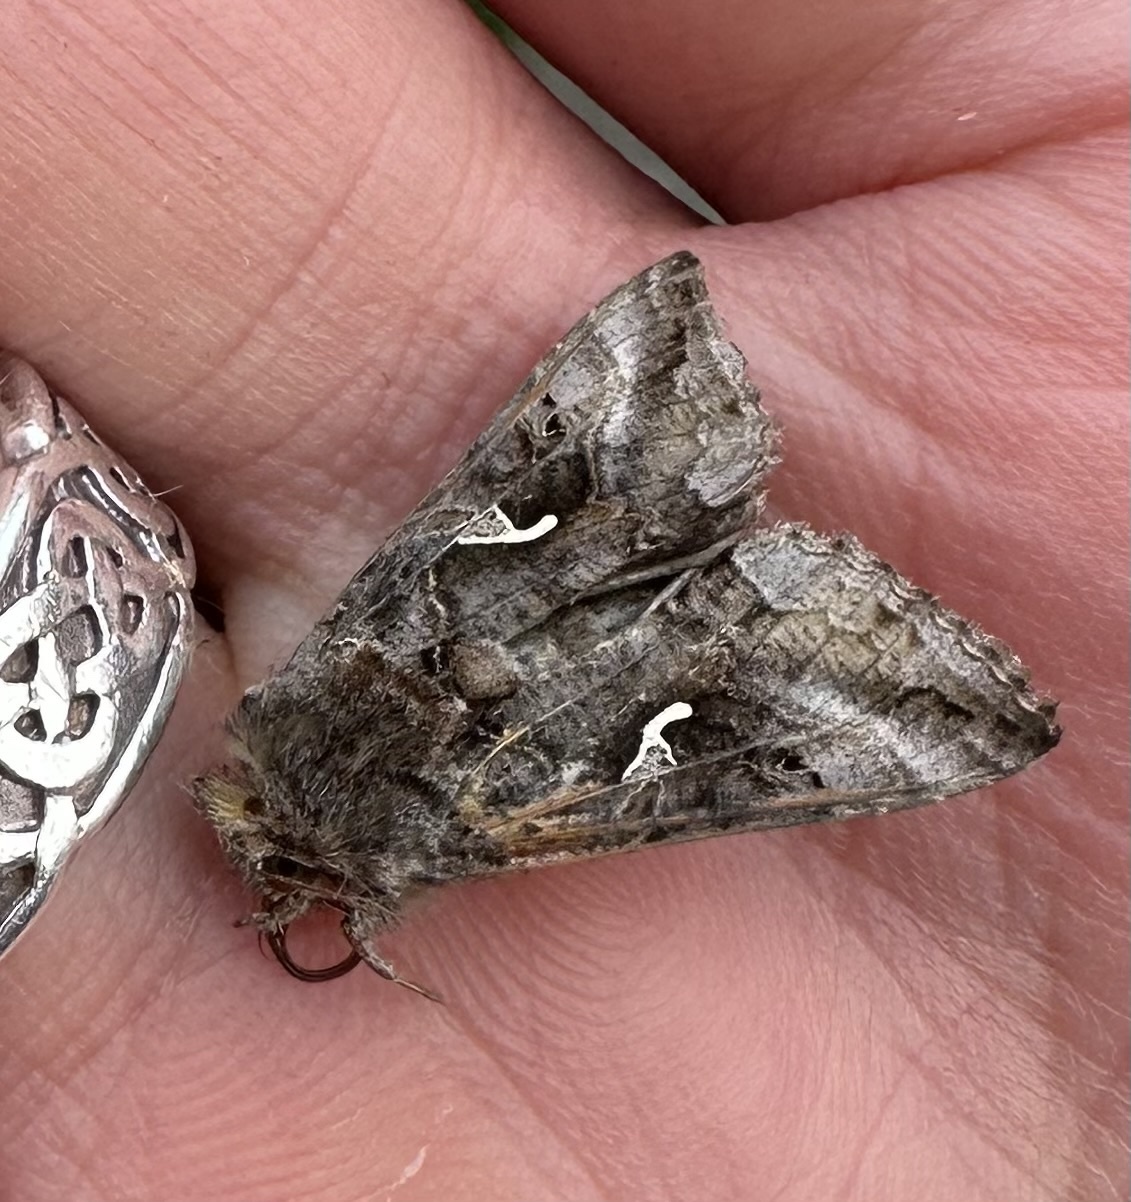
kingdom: Animalia
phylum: Arthropoda
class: Insecta
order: Lepidoptera
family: Noctuidae
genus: Autographa
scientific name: Autographa gamma
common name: Silver y
